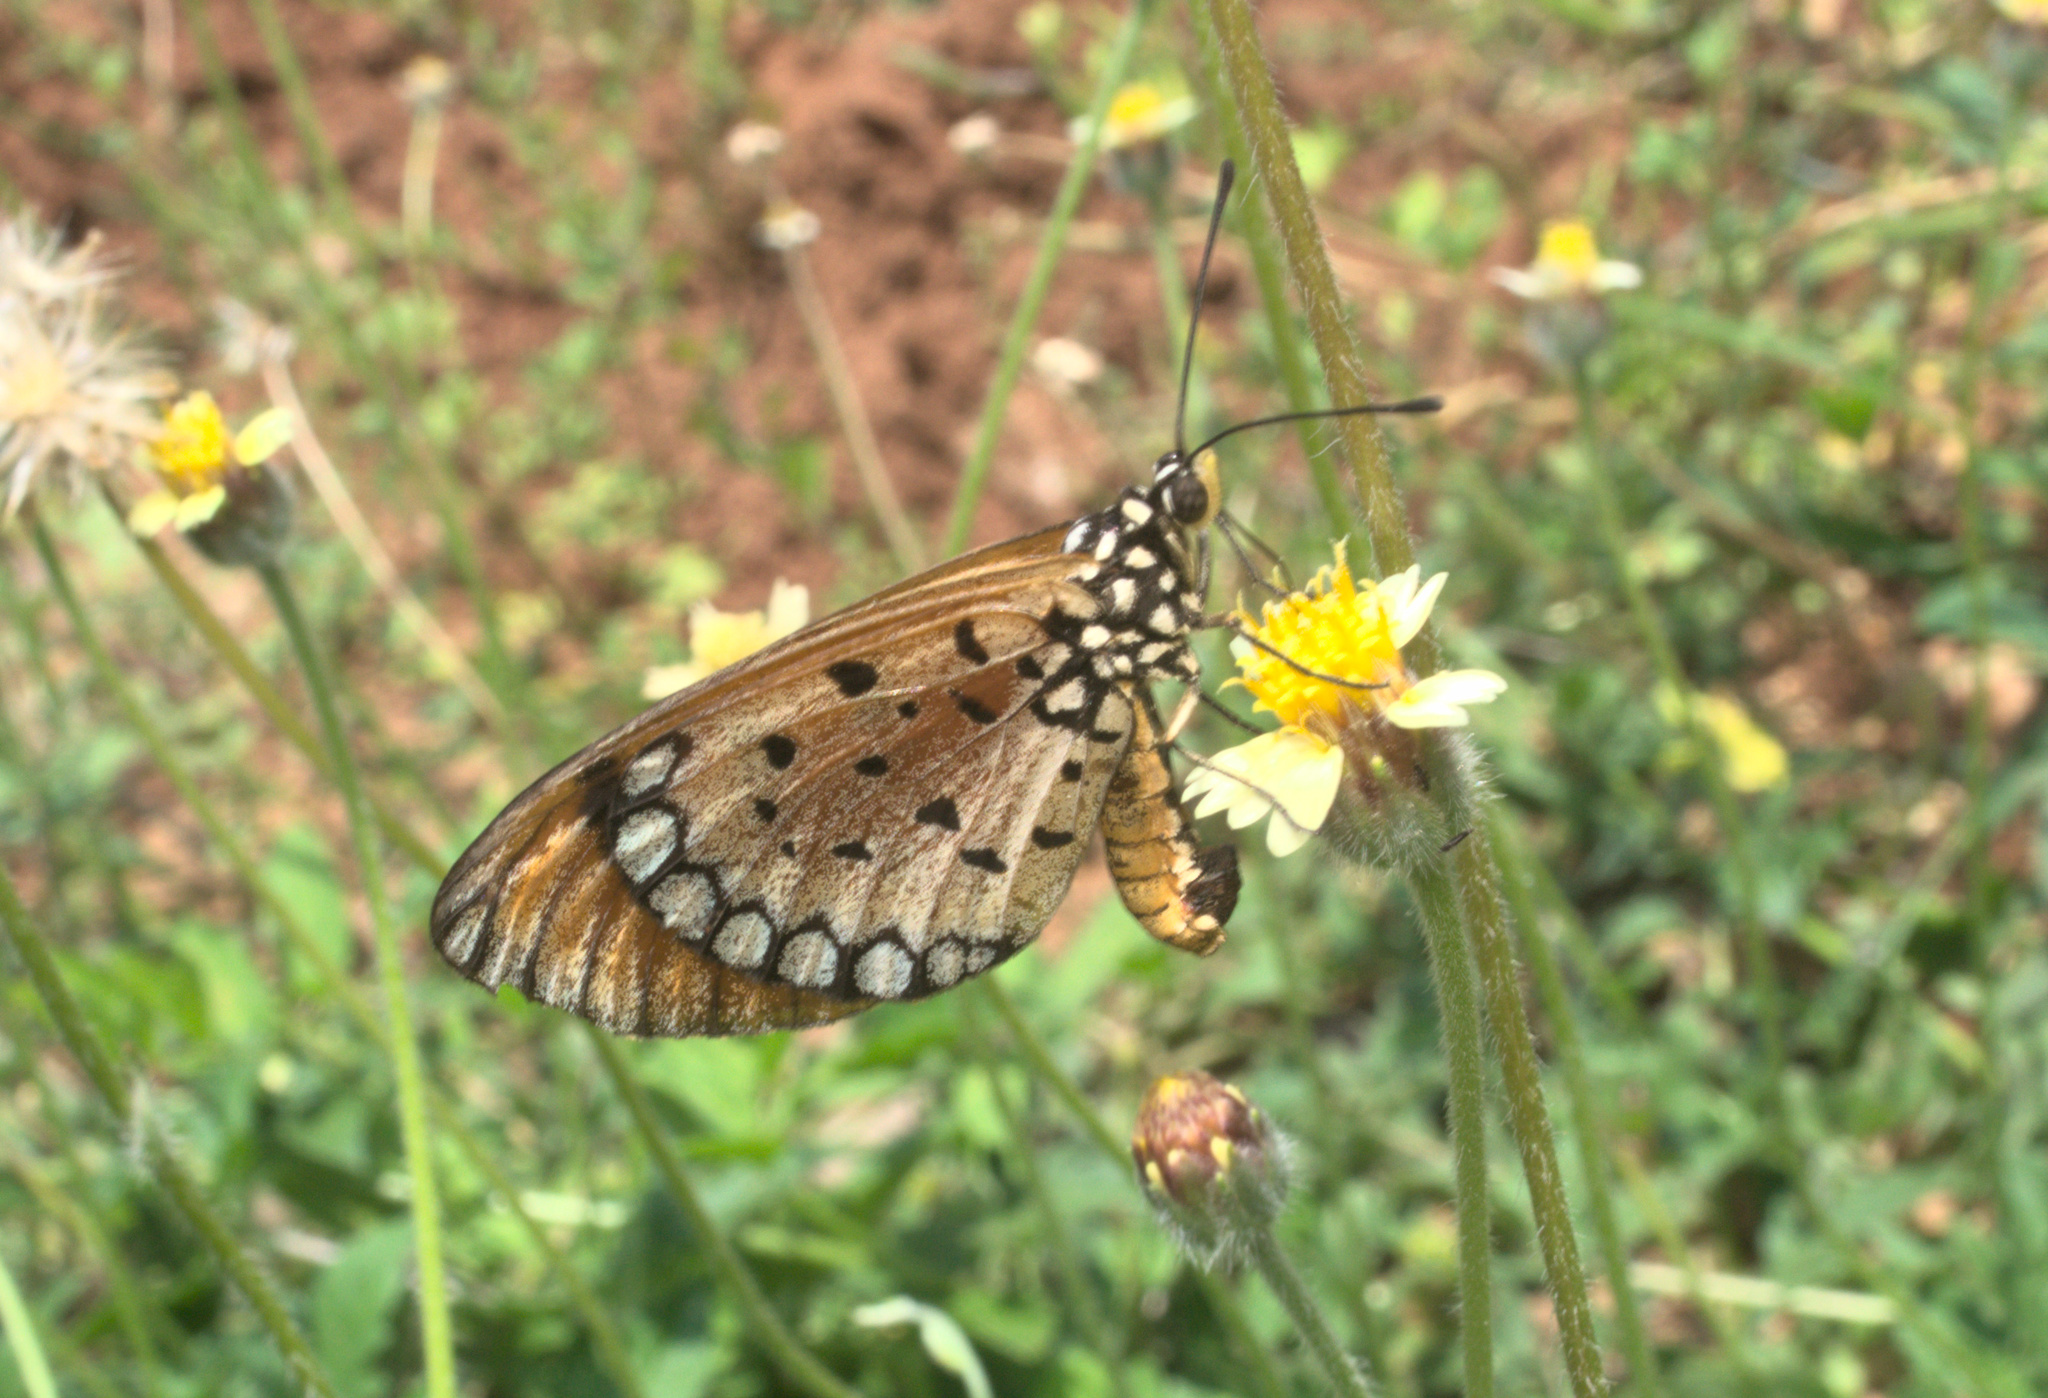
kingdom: Animalia
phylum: Arthropoda
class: Insecta
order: Lepidoptera
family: Nymphalidae
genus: Acraea
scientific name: Acraea terpsicore
